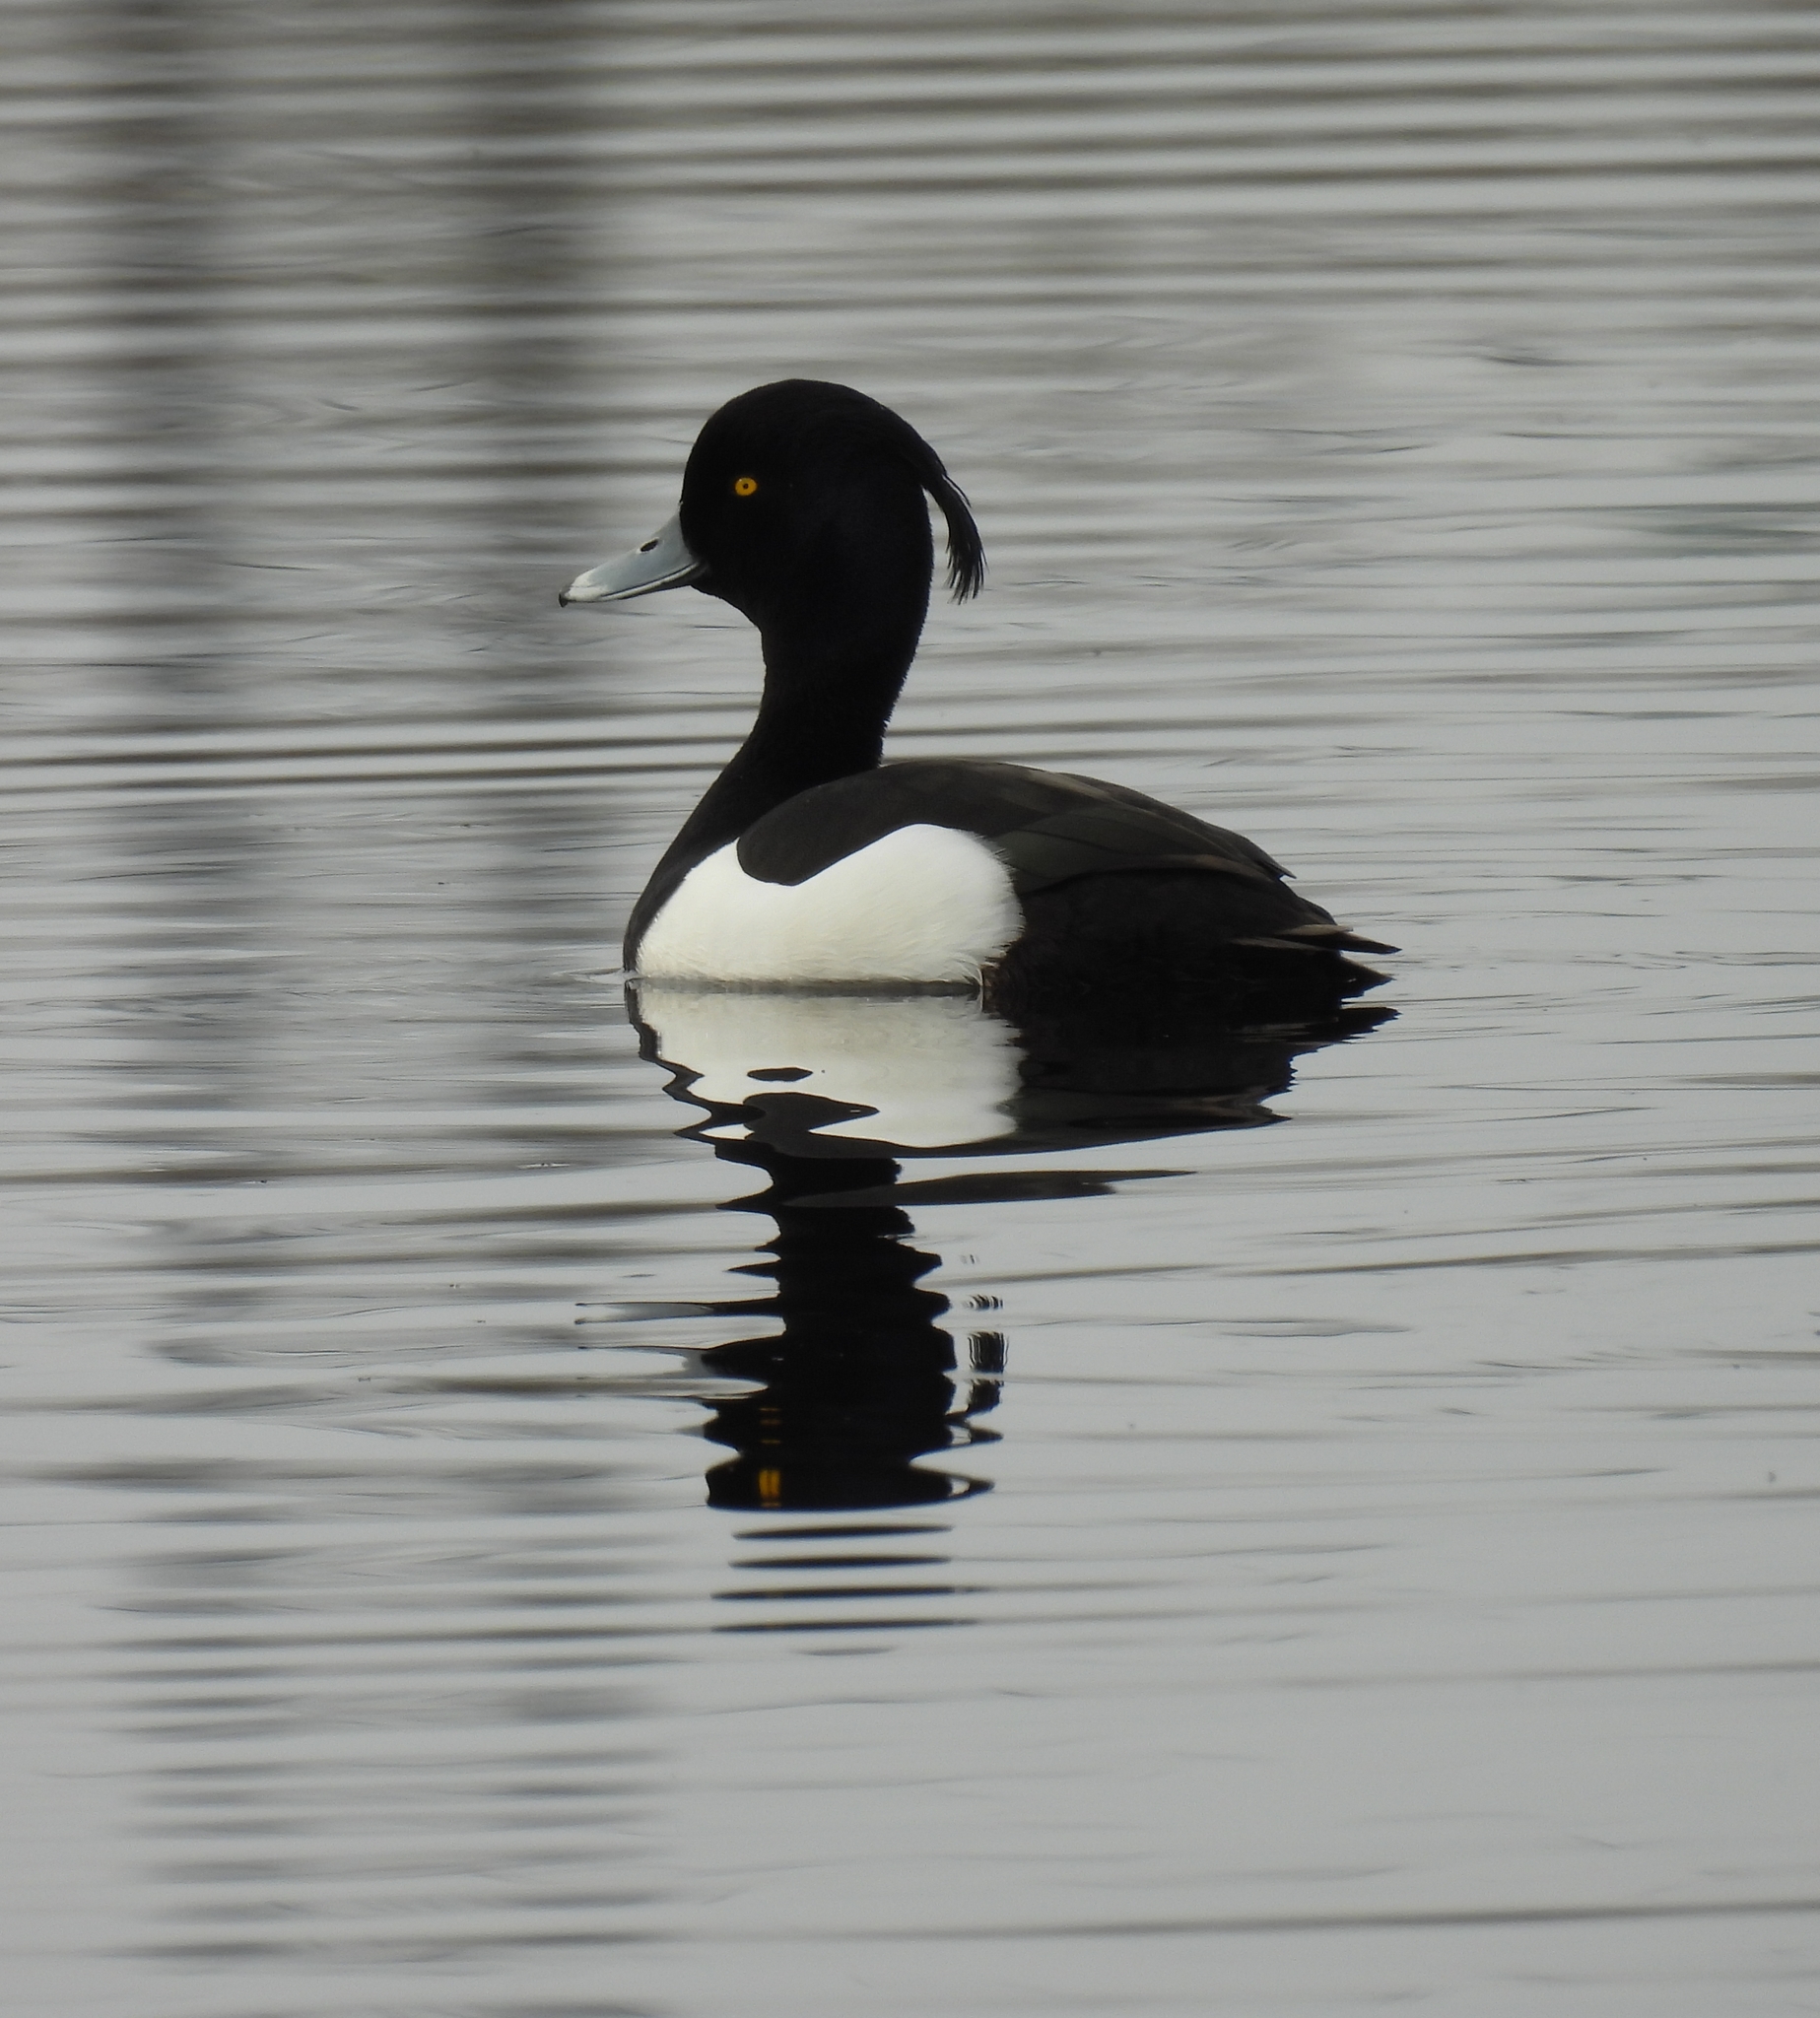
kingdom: Animalia
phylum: Chordata
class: Aves
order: Anseriformes
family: Anatidae
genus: Aythya
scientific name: Aythya fuligula
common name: Tufted duck
